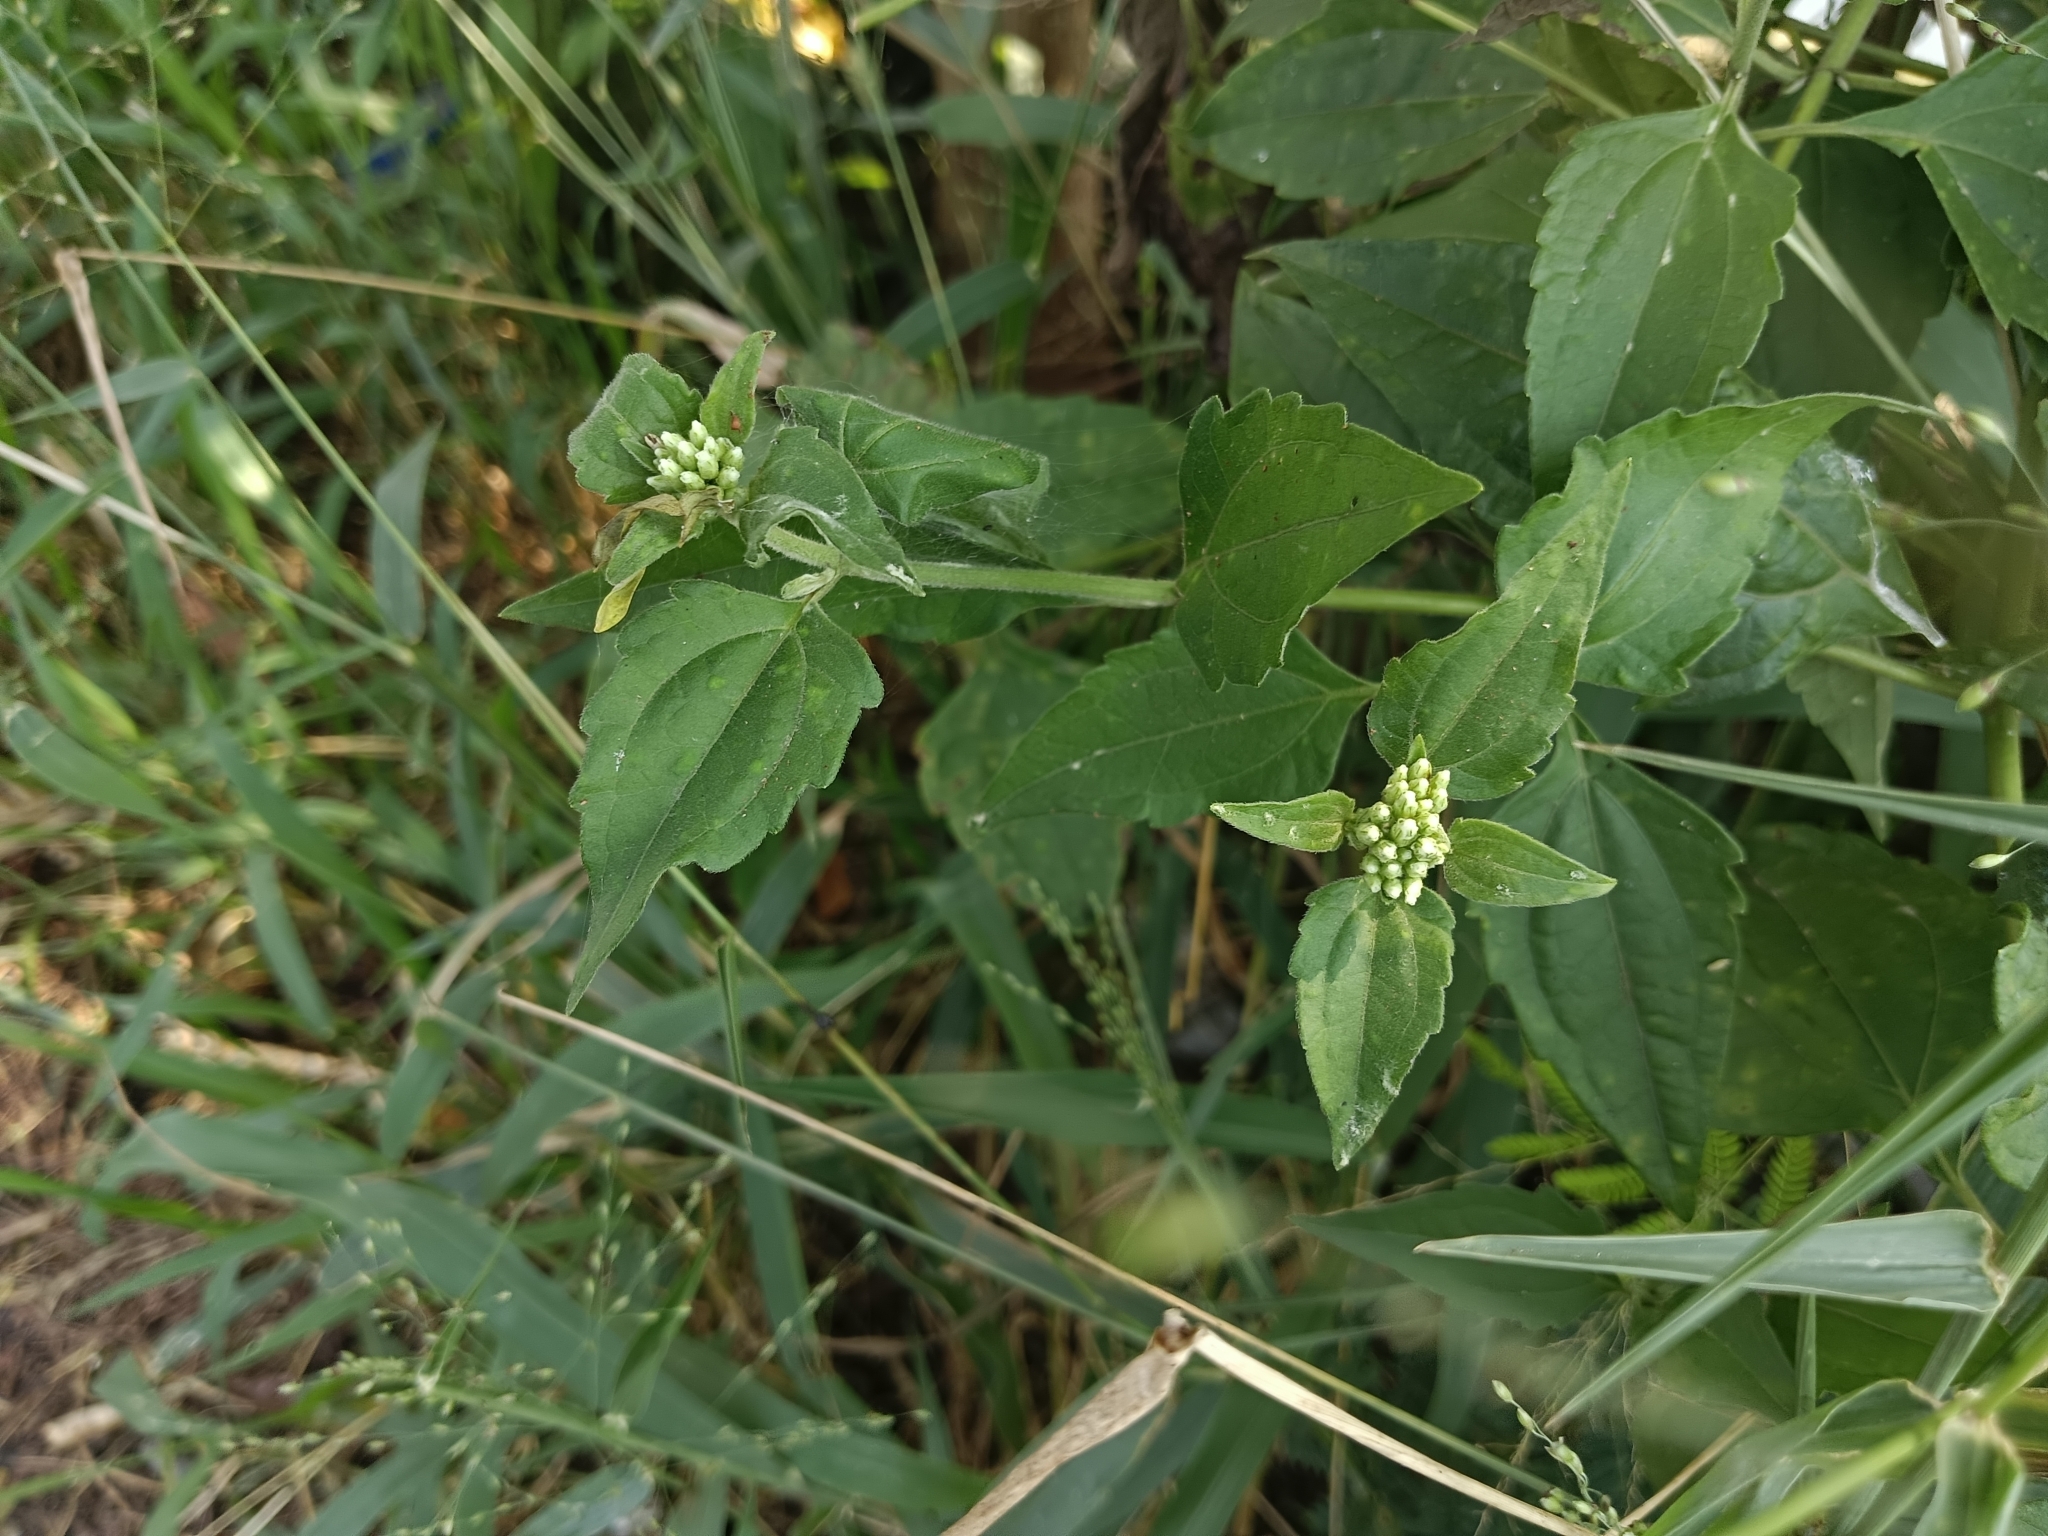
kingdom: Plantae
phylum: Tracheophyta
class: Magnoliopsida
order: Asterales
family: Asteraceae
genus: Chromolaena
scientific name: Chromolaena odorata
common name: Siamweed
